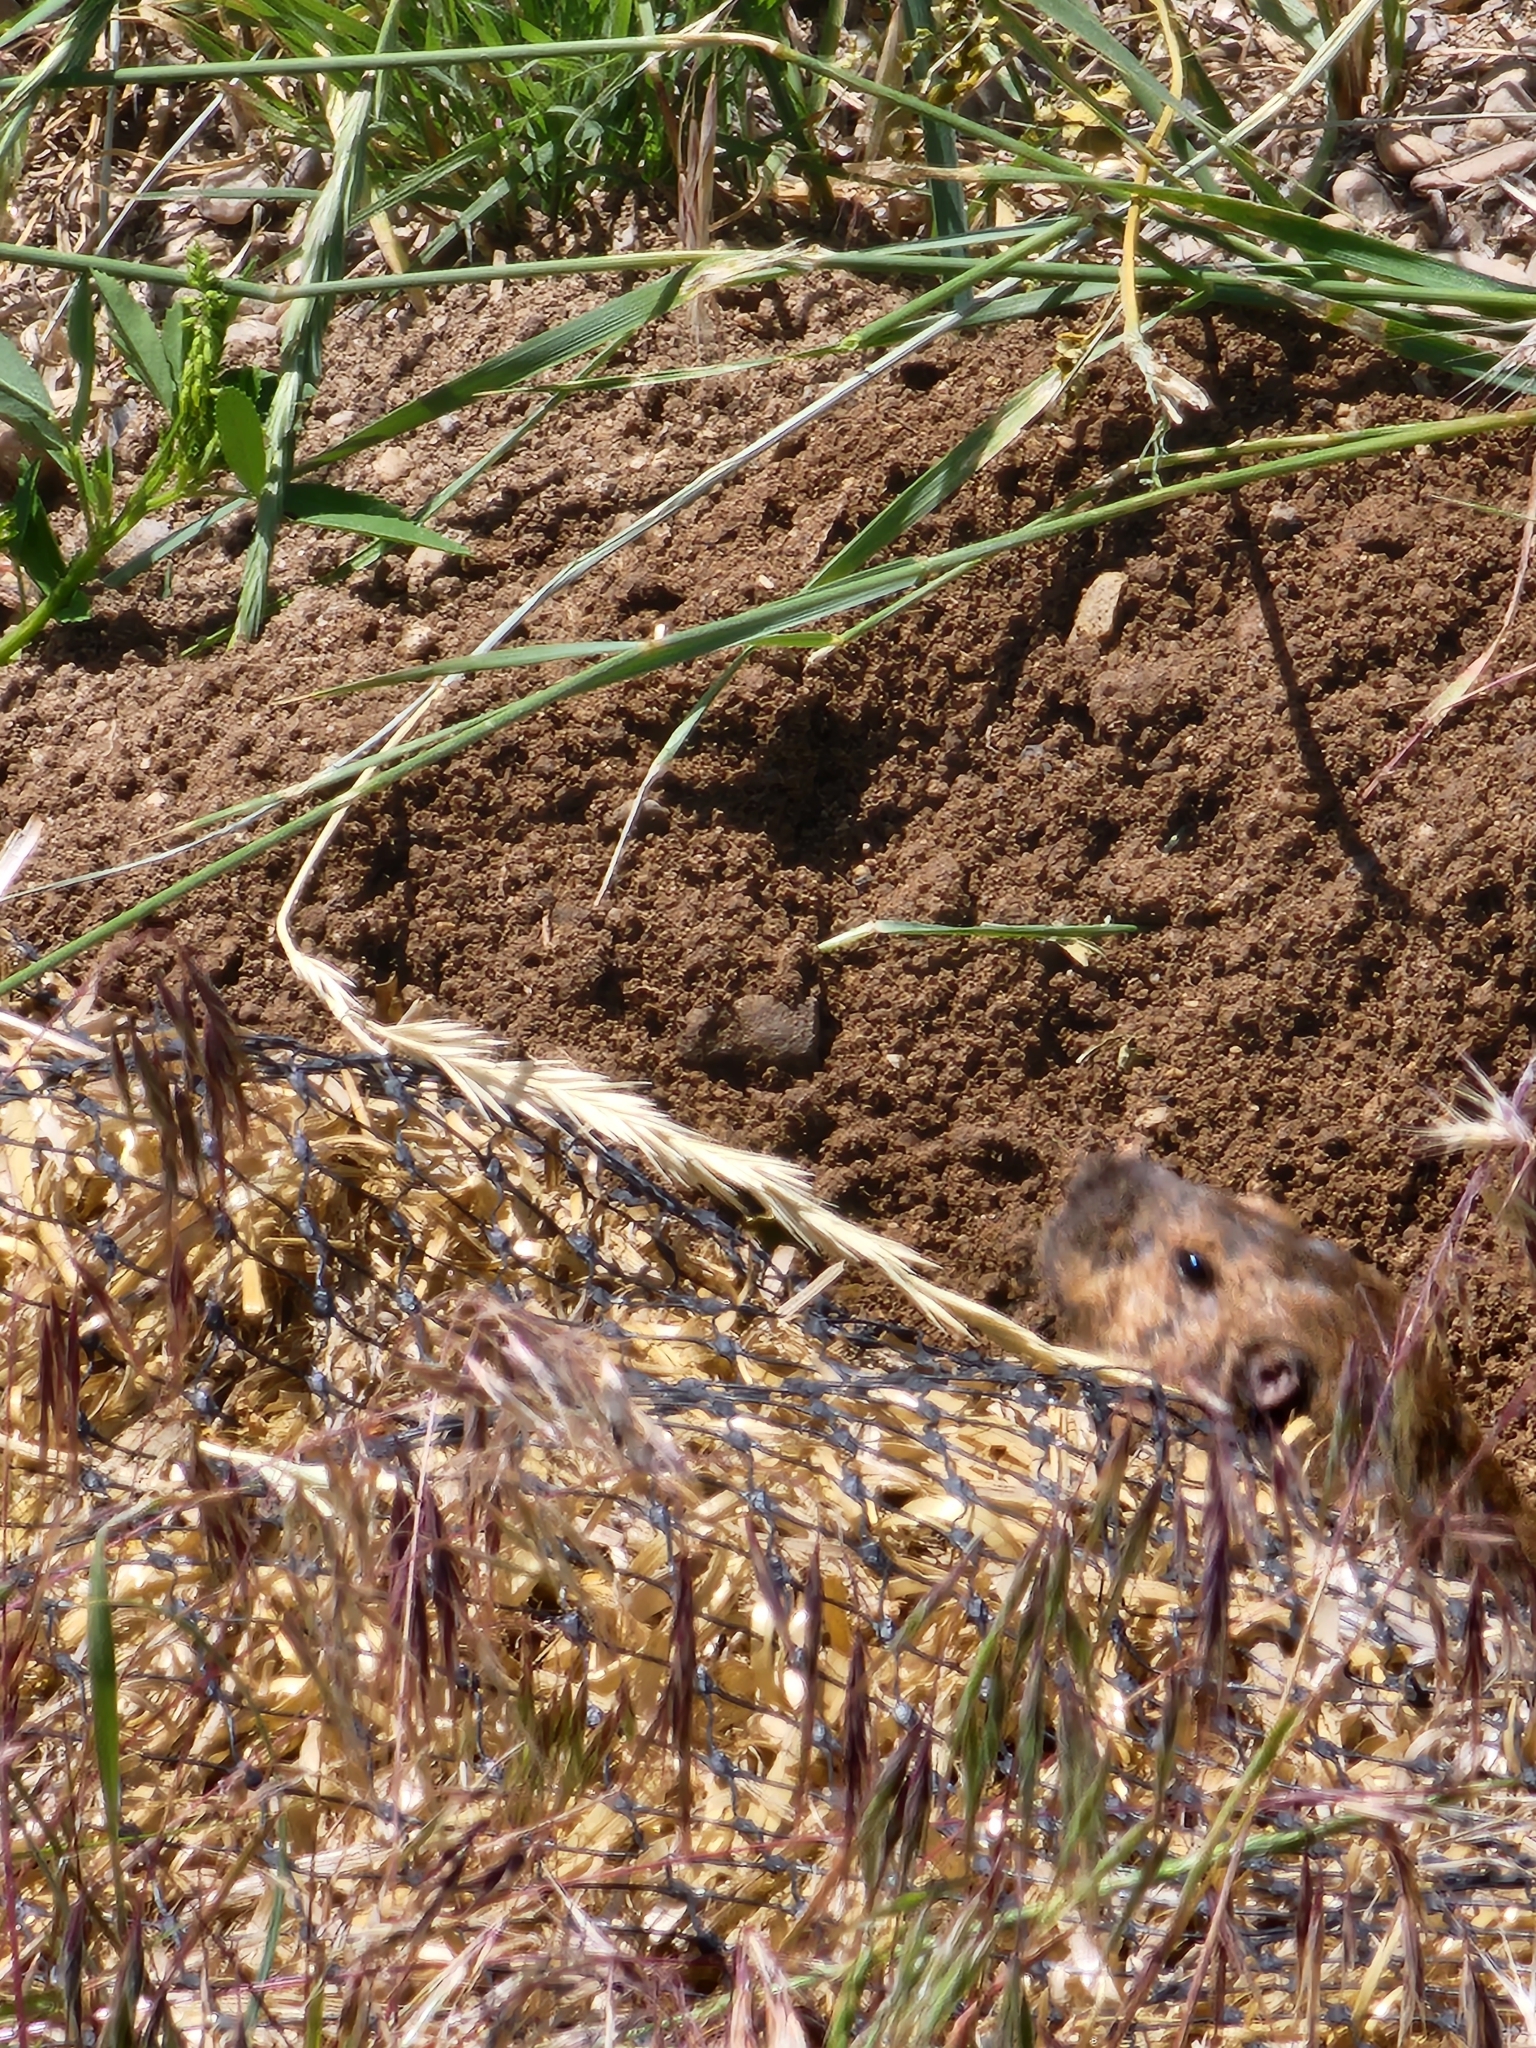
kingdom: Animalia
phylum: Chordata
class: Mammalia
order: Rodentia
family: Geomyidae
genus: Thomomys
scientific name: Thomomys bottae
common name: Botta's pocket gopher
